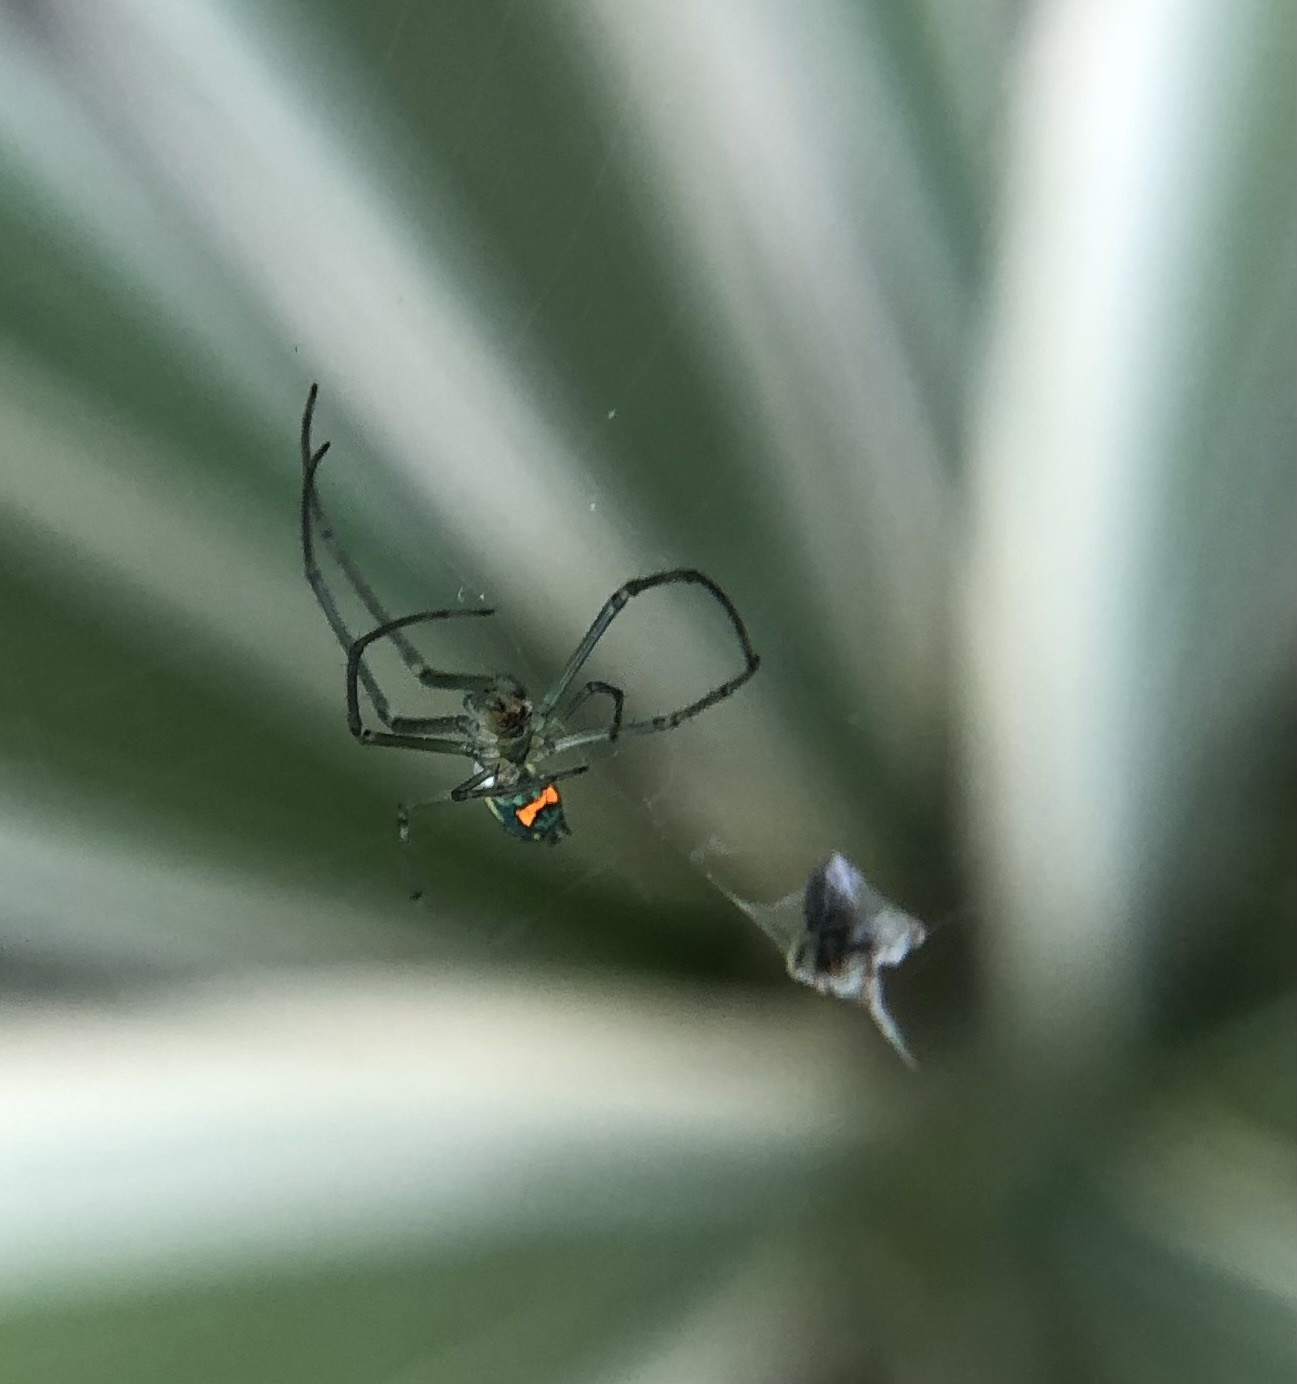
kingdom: Animalia
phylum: Arthropoda
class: Arachnida
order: Araneae
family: Tetragnathidae
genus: Leucauge
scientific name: Leucauge argyrobapta
